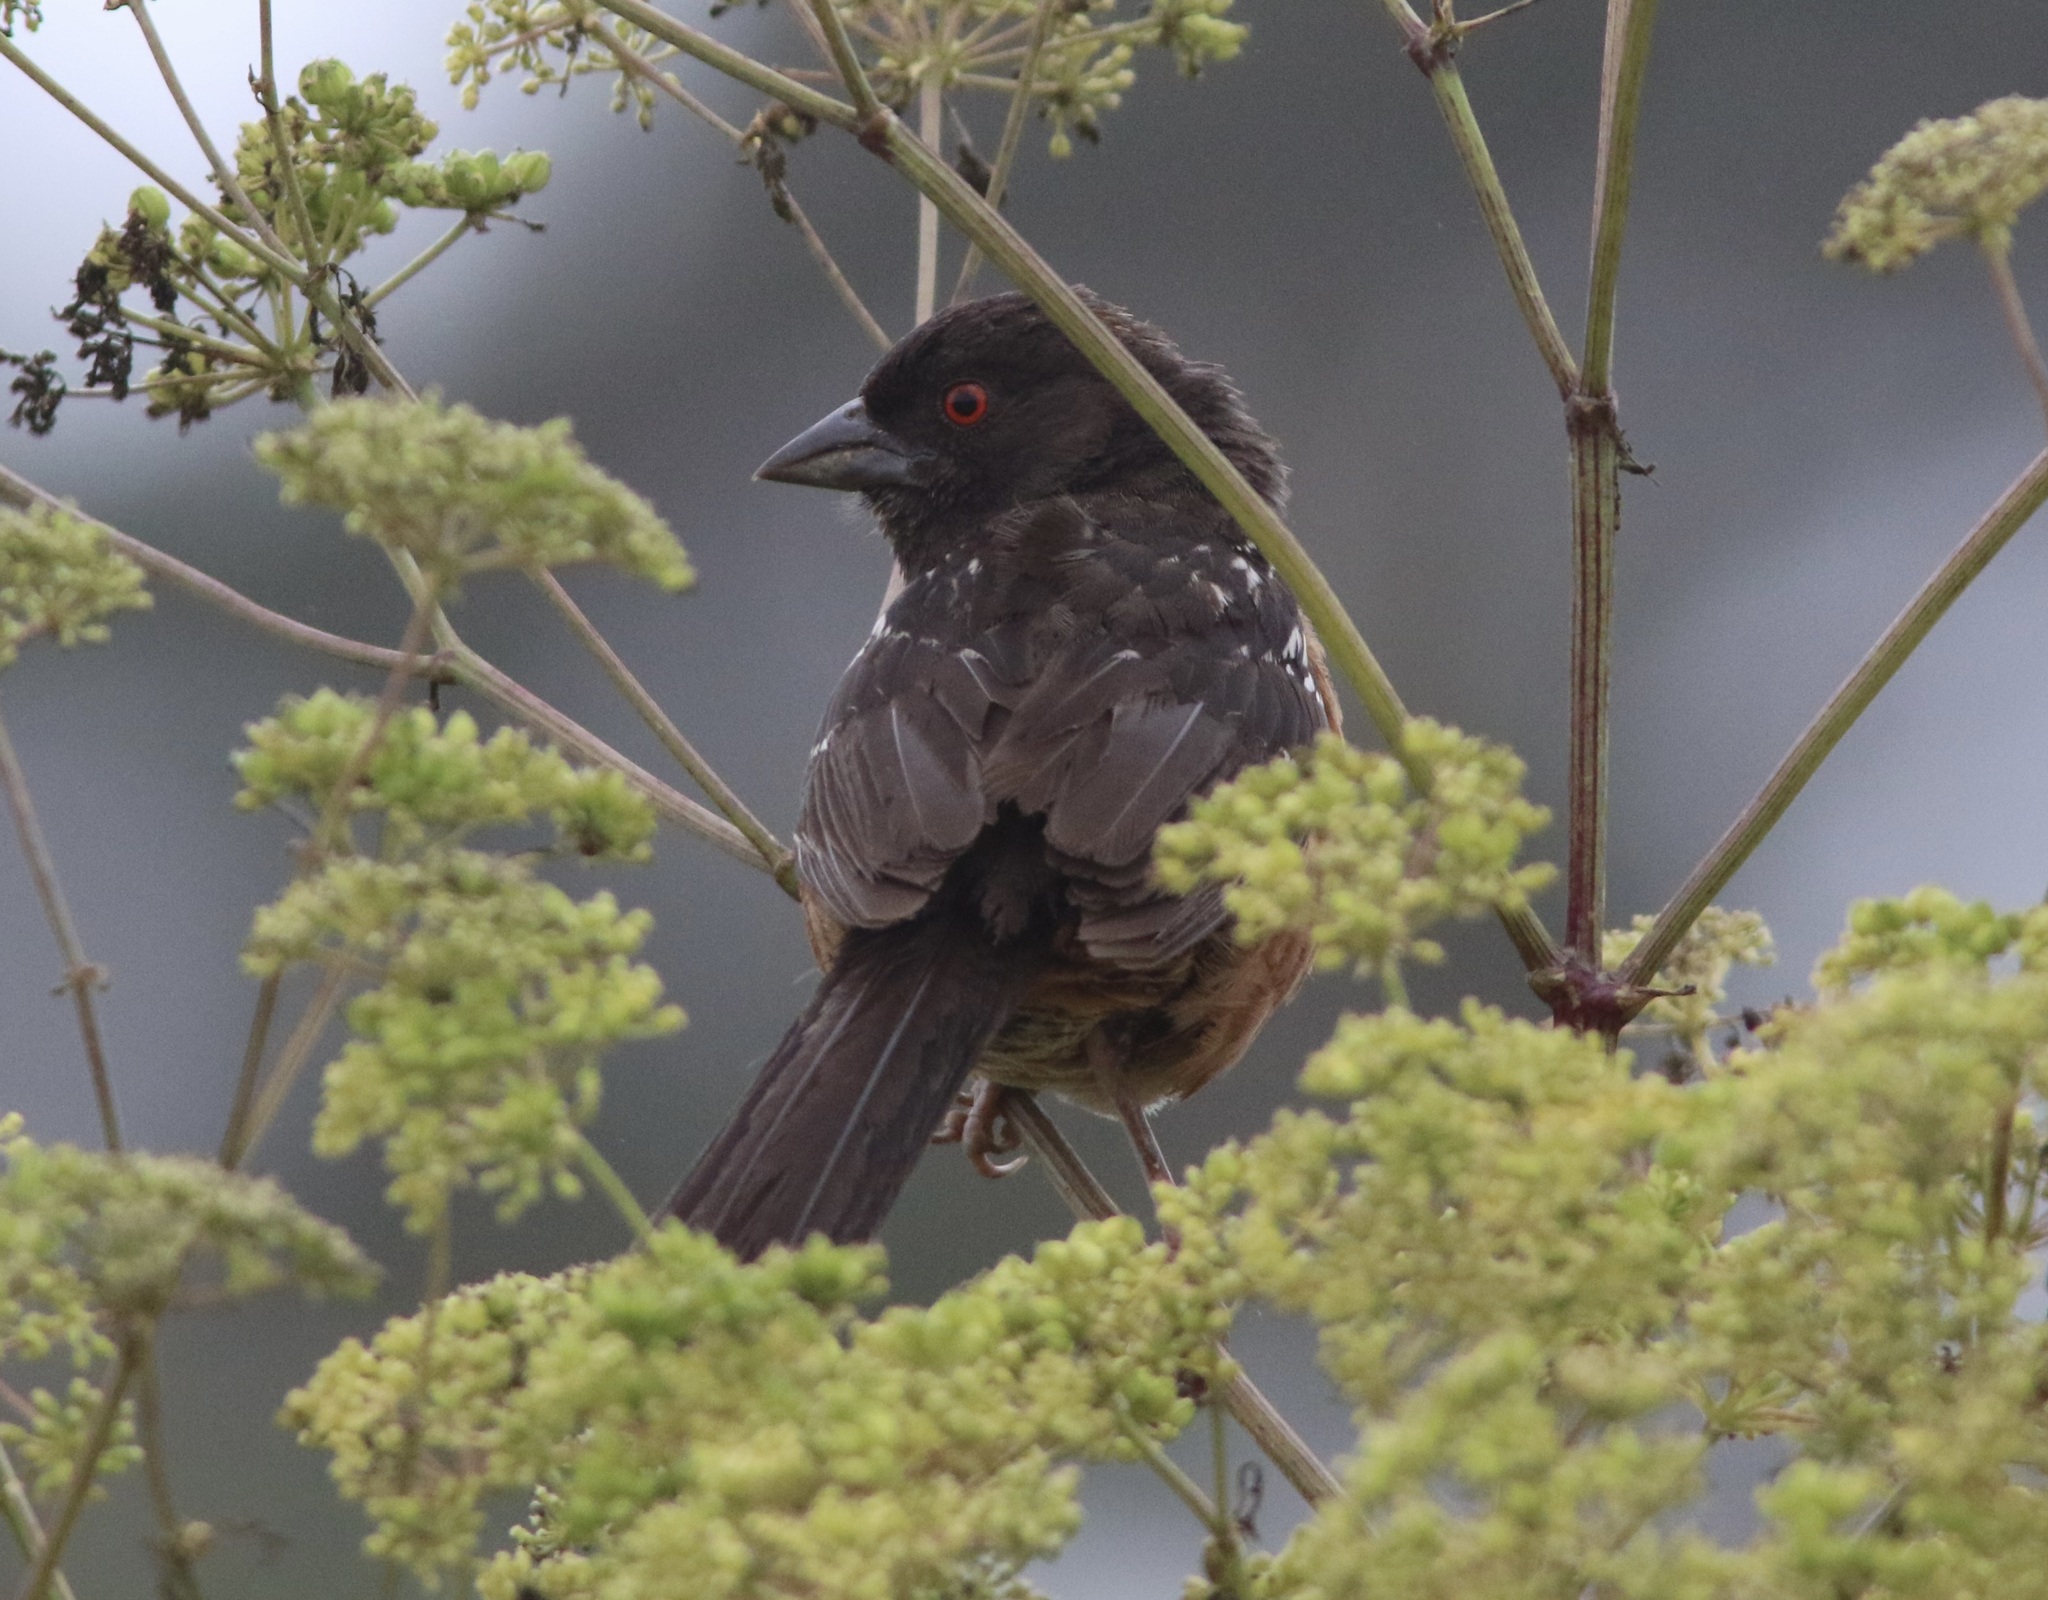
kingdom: Animalia
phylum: Chordata
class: Aves
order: Passeriformes
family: Passerellidae
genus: Pipilo
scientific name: Pipilo maculatus
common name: Spotted towhee
